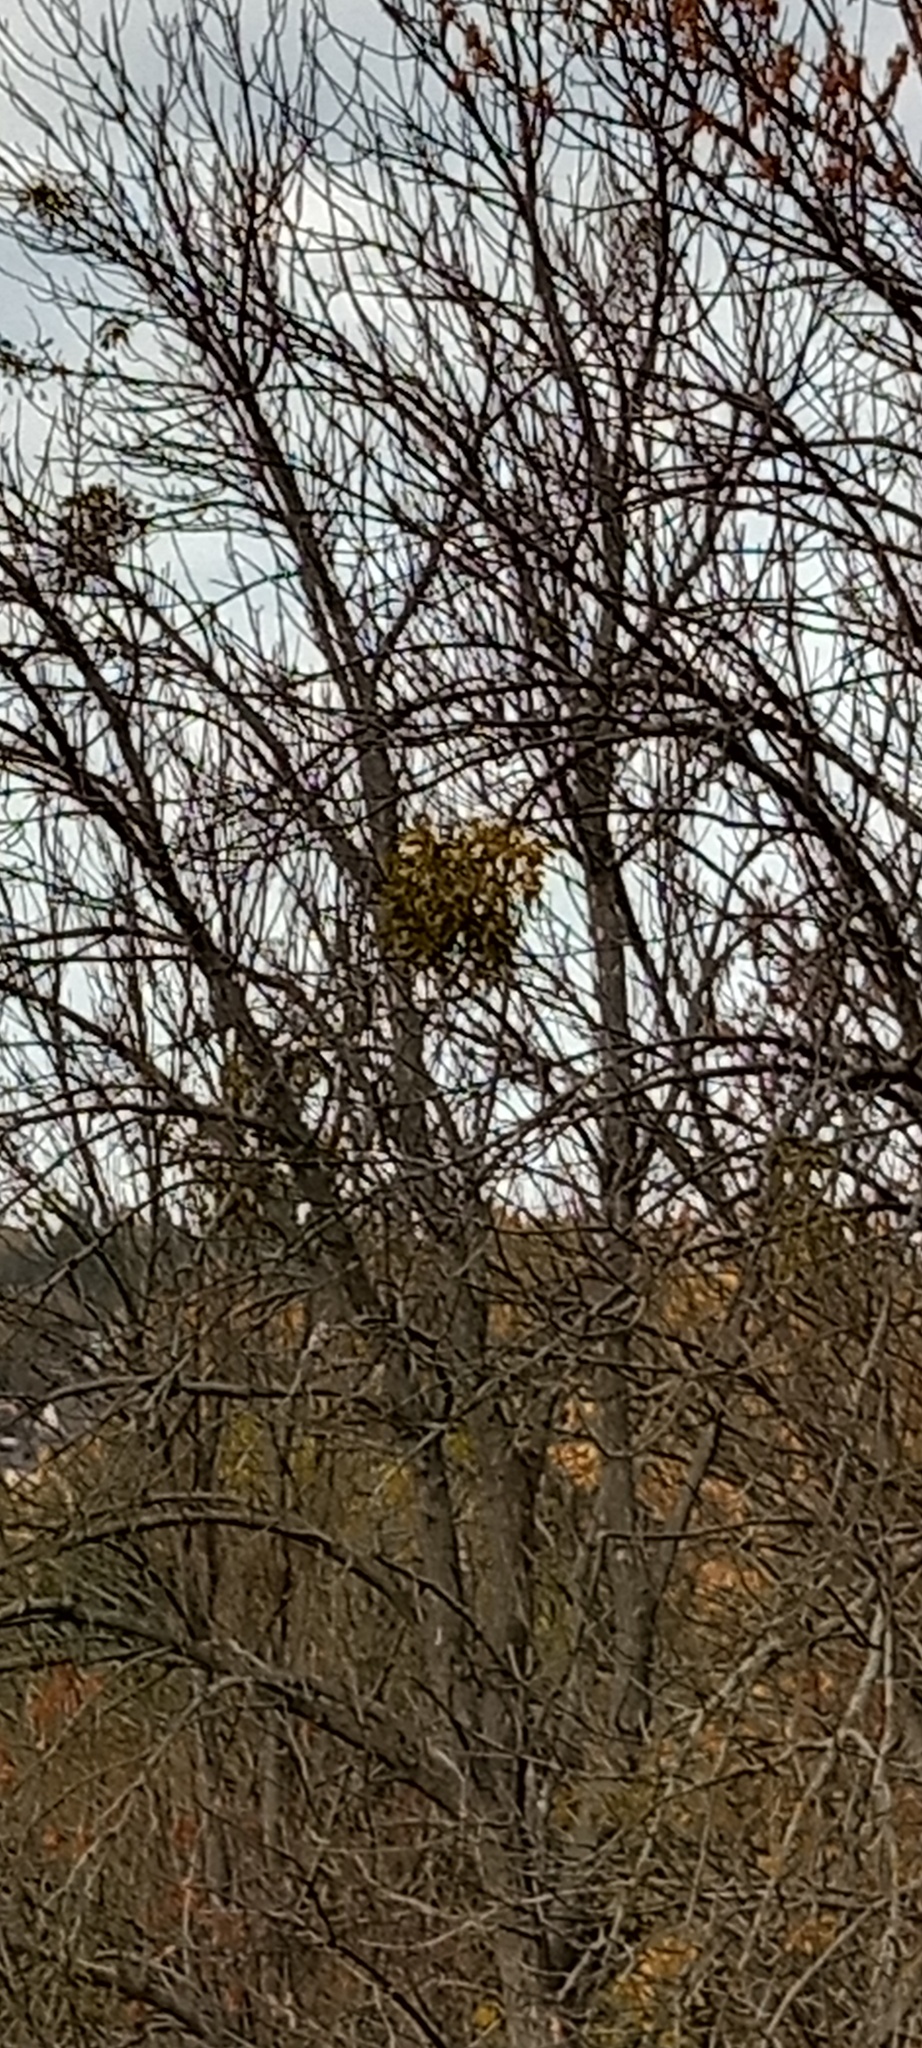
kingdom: Plantae
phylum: Tracheophyta
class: Magnoliopsida
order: Santalales
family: Viscaceae
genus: Viscum
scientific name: Viscum album
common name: Mistletoe
